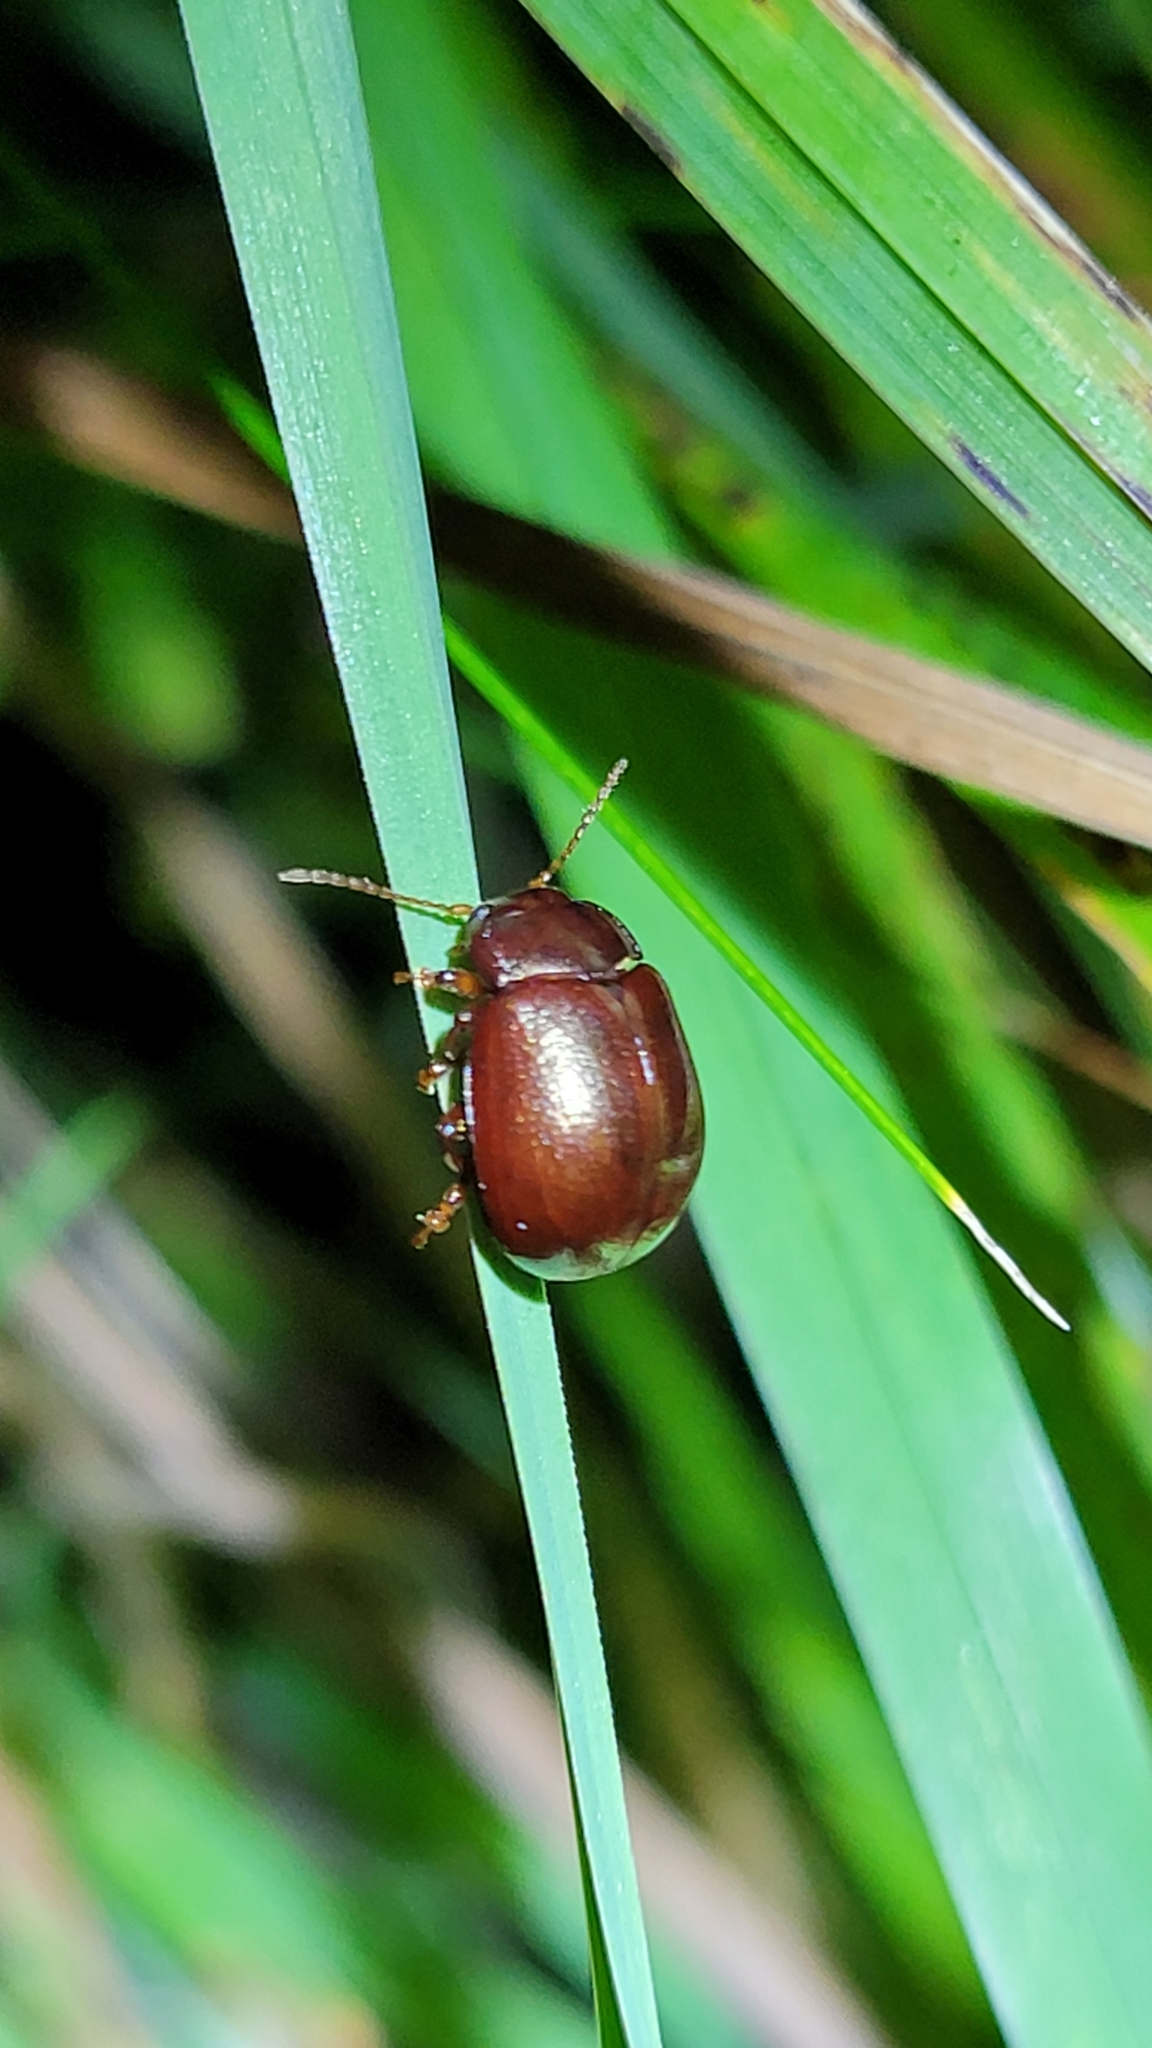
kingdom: Animalia
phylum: Arthropoda
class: Insecta
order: Coleoptera
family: Chrysomelidae
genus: Chrysolina
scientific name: Chrysolina staphylaea
